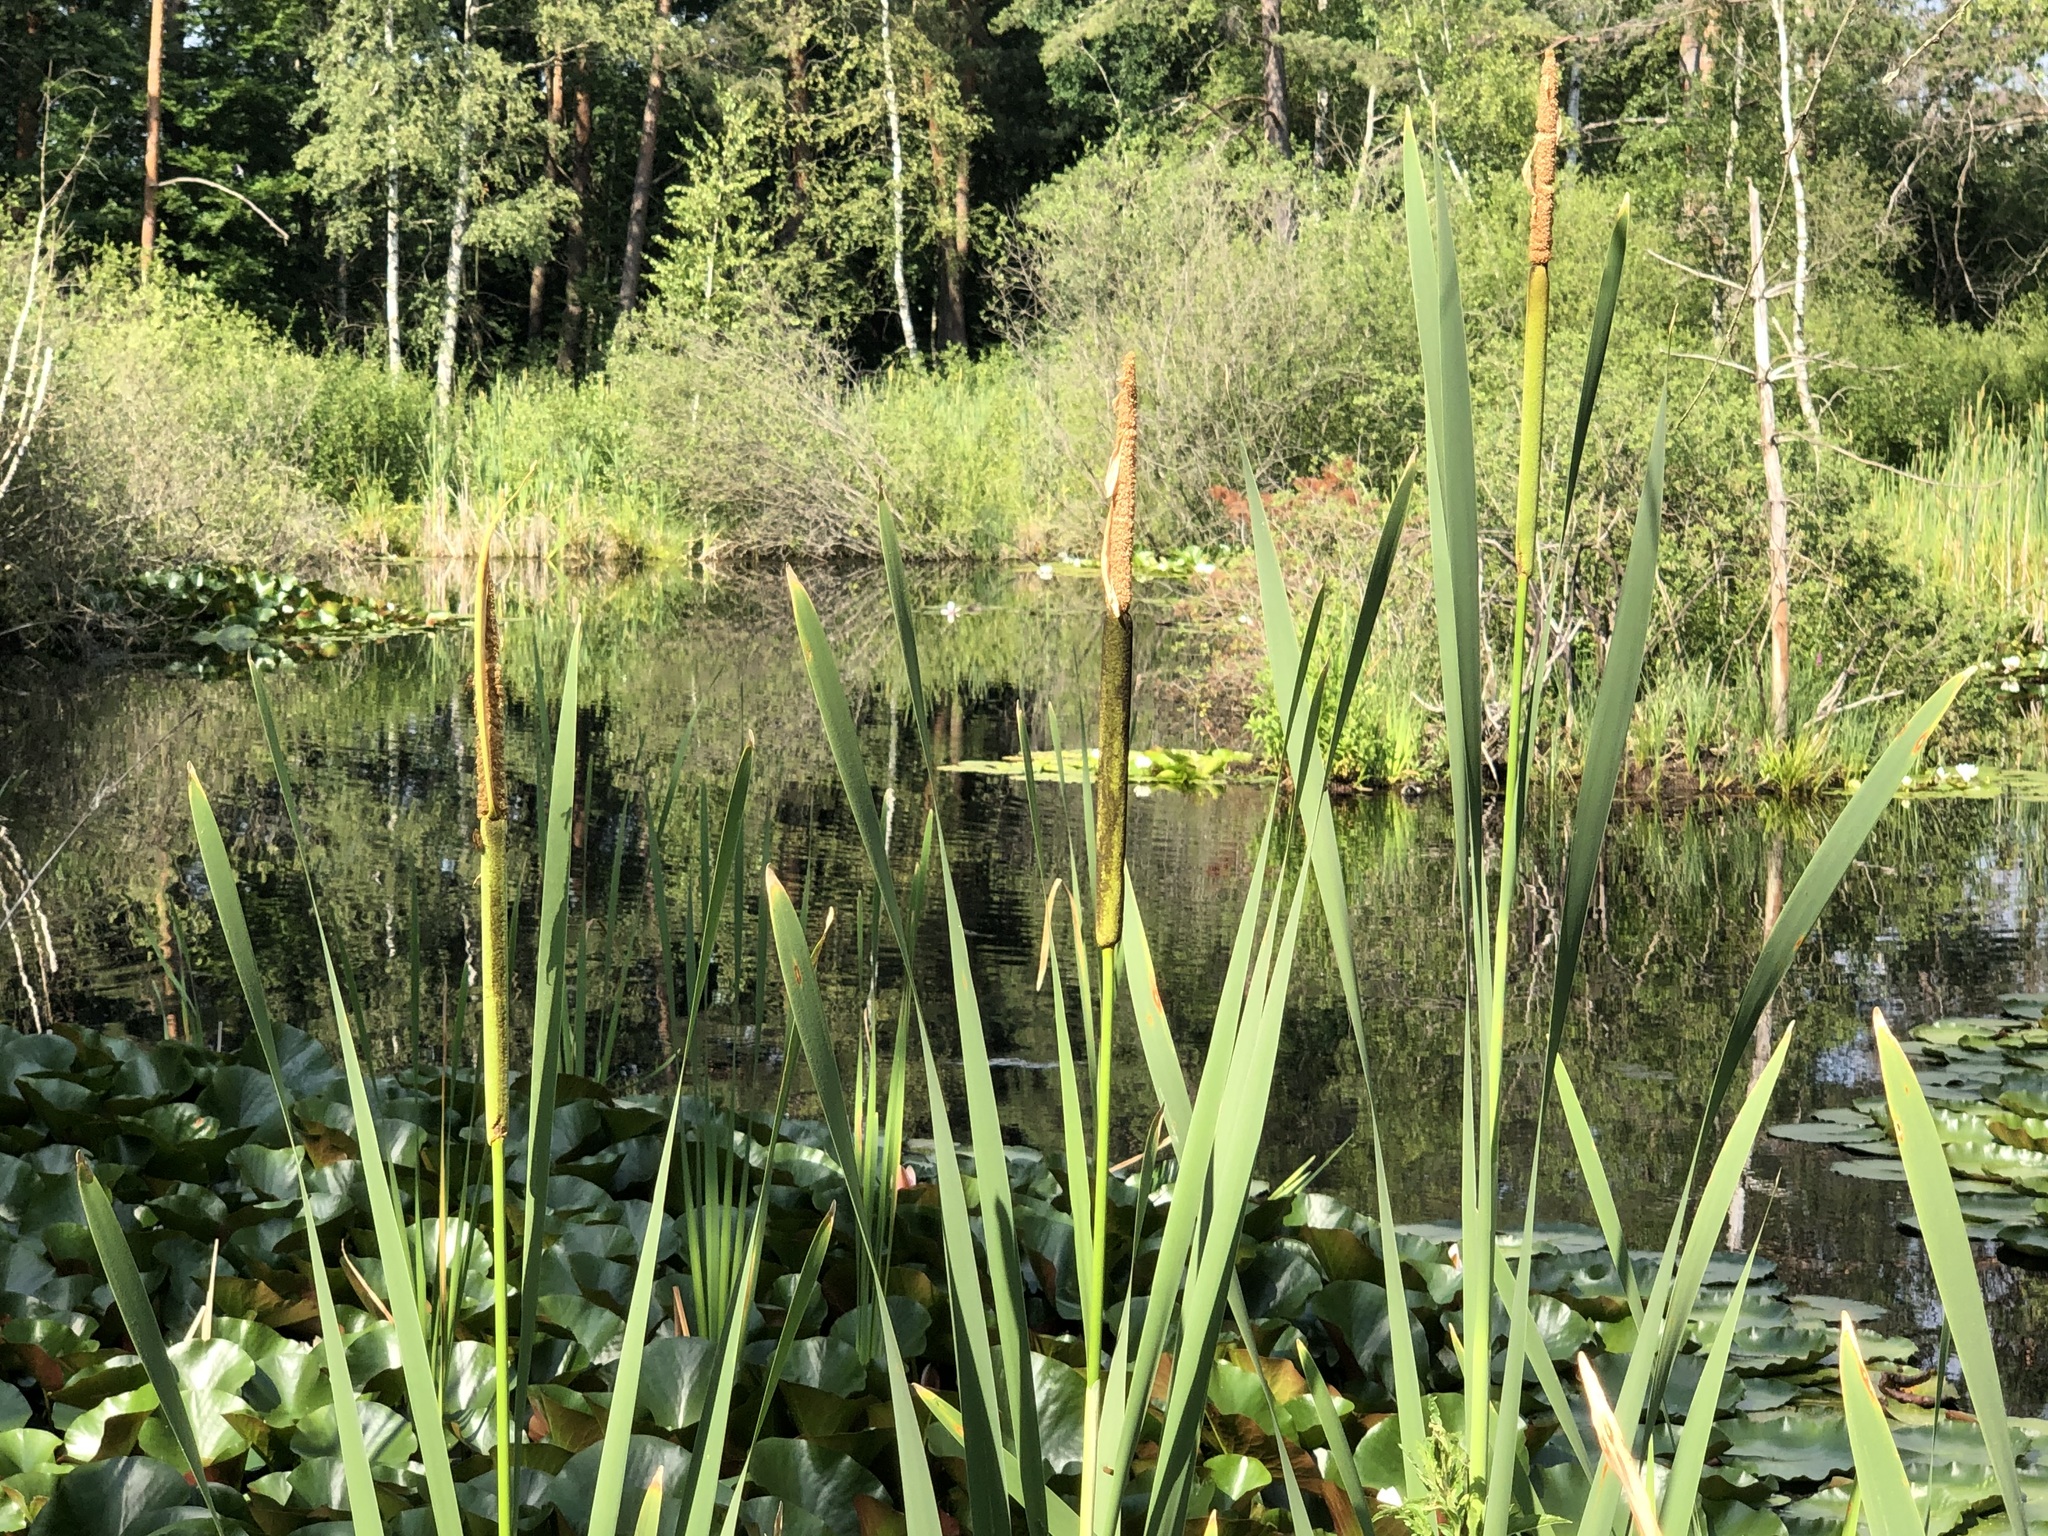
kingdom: Plantae
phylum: Tracheophyta
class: Liliopsida
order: Poales
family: Typhaceae
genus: Typha
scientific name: Typha latifolia
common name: Broadleaf cattail
